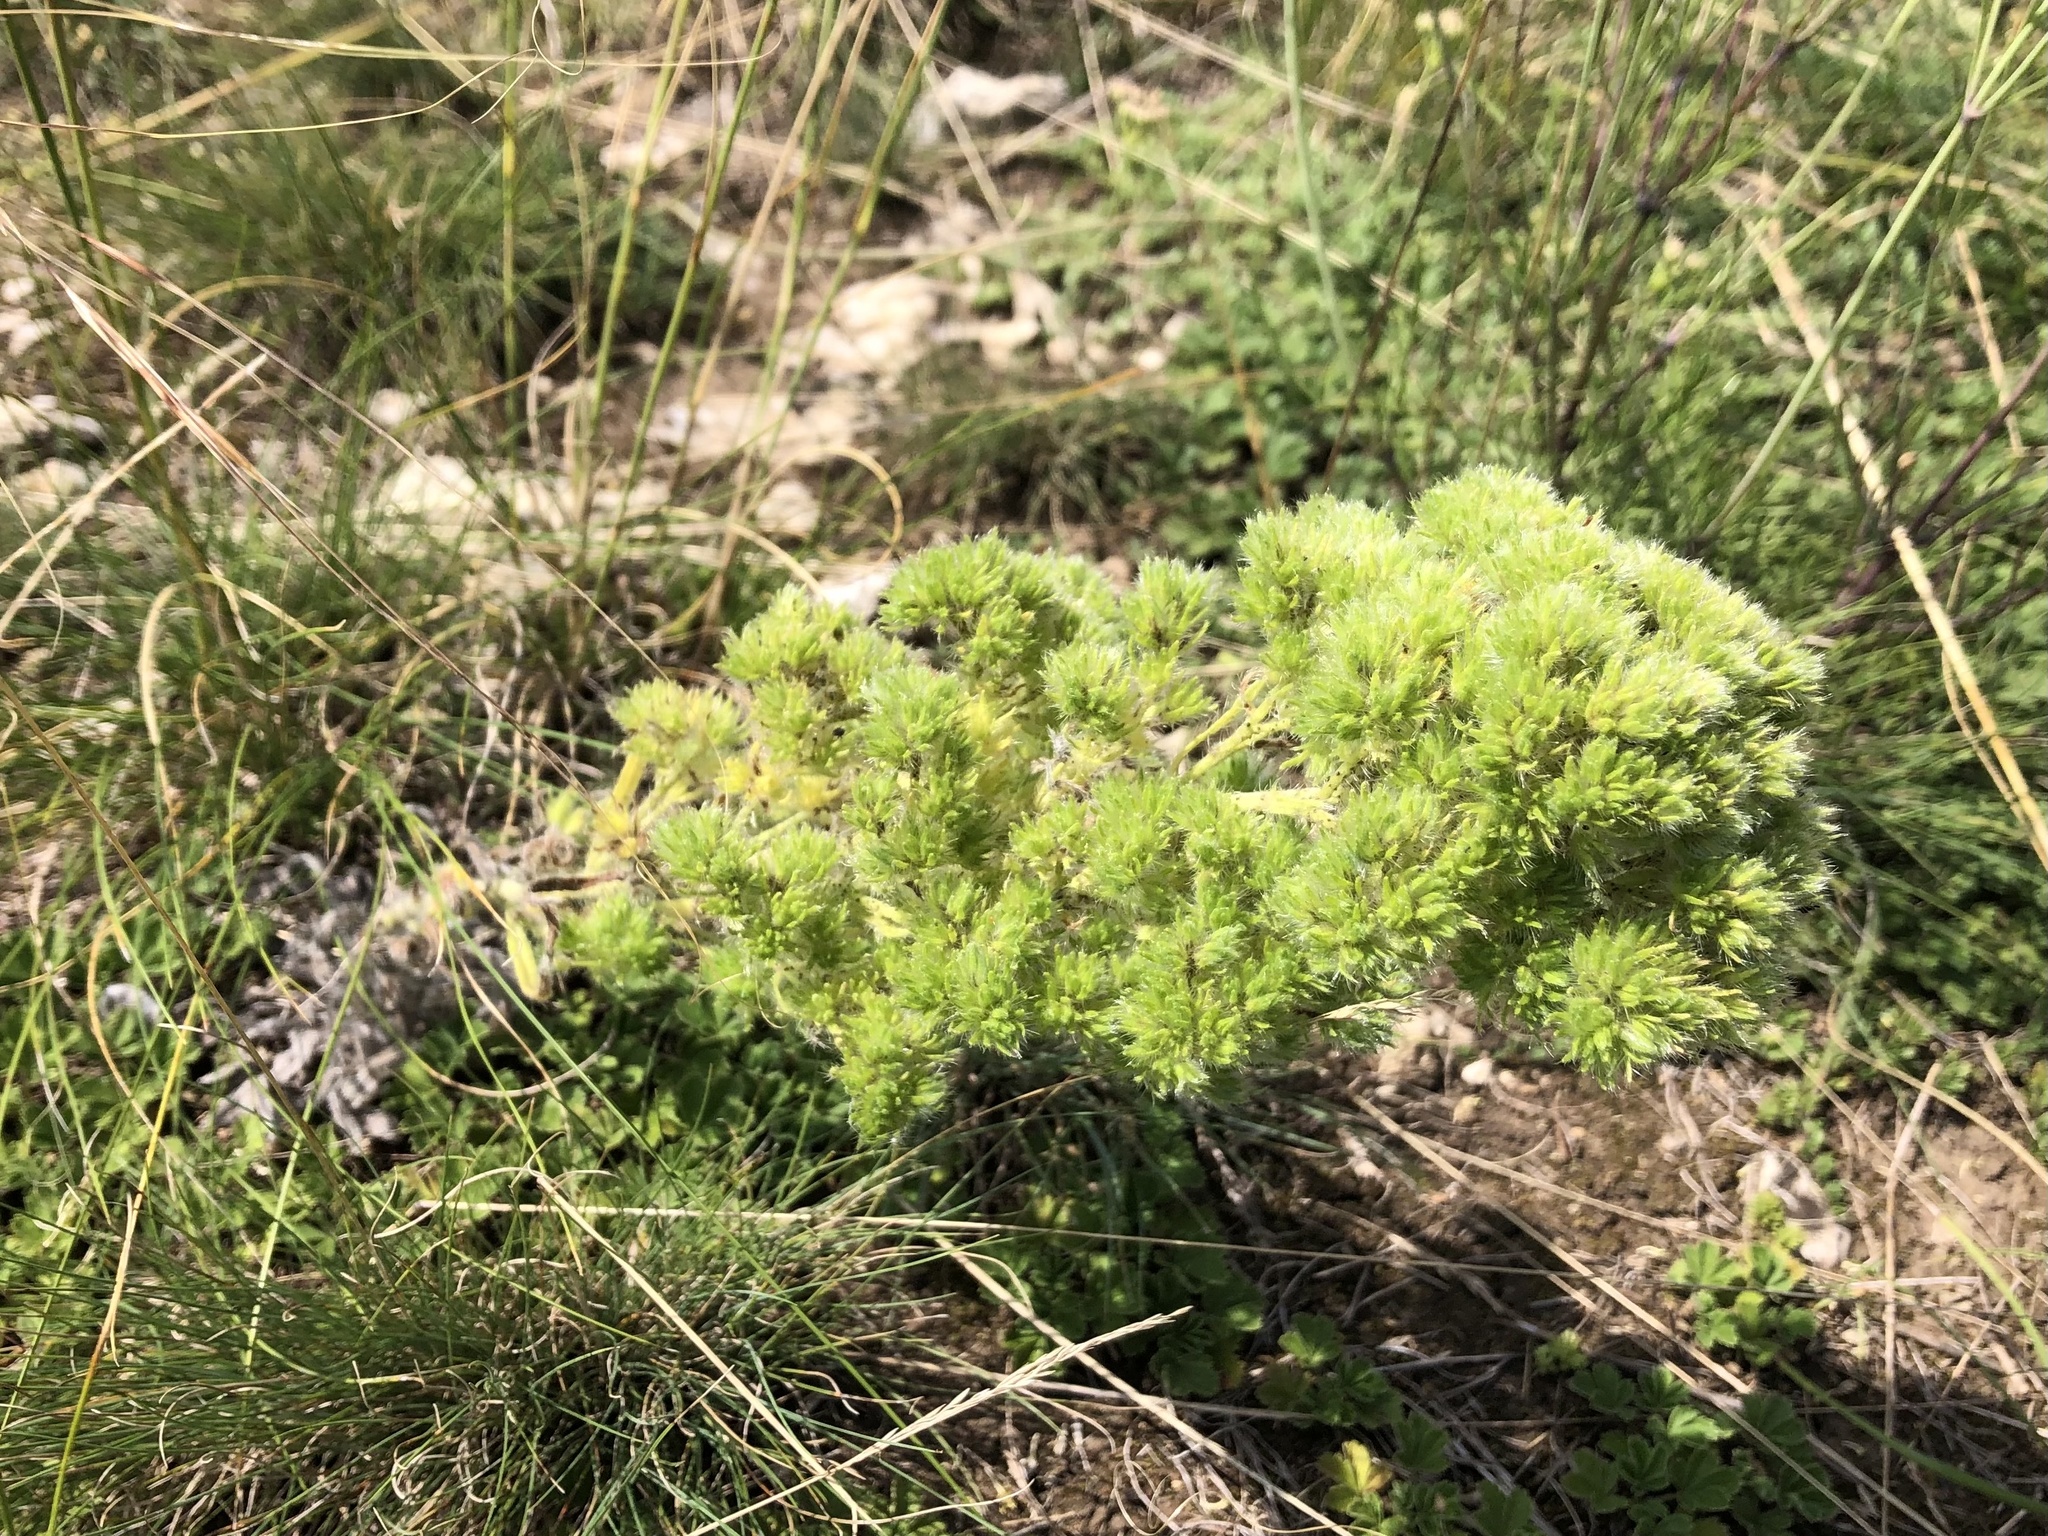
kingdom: Plantae
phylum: Tracheophyta
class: Magnoliopsida
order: Boraginales
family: Boraginaceae
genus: Echium
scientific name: Echium vulgare
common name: Common viper's bugloss
